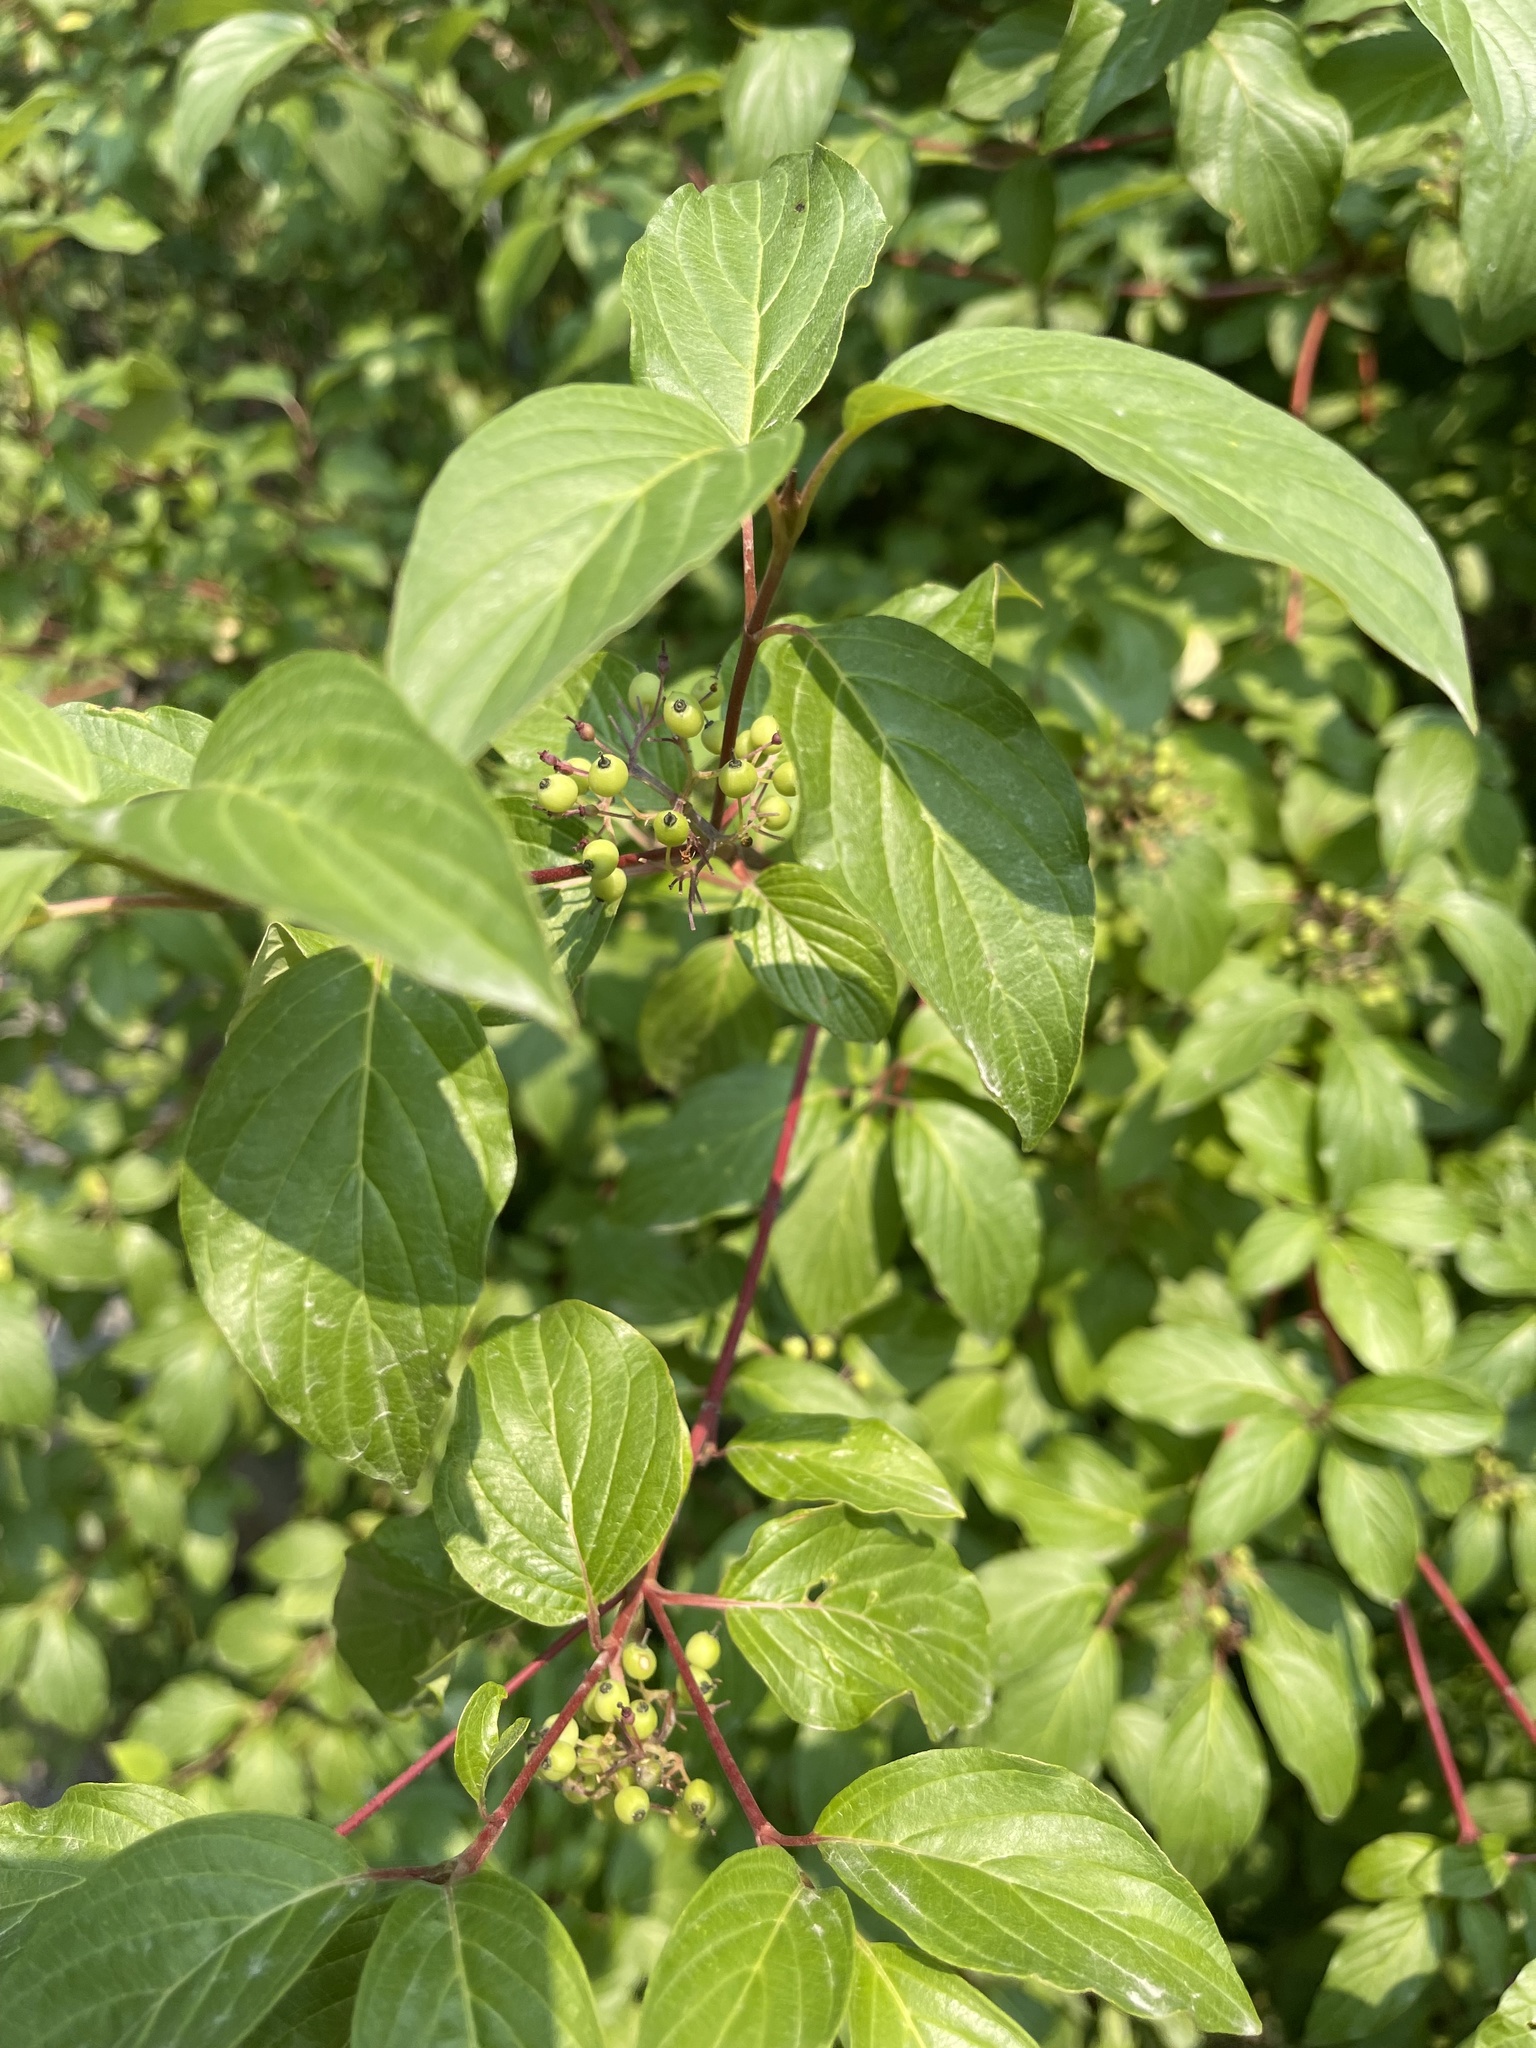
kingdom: Plantae
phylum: Tracheophyta
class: Magnoliopsida
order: Cornales
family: Cornaceae
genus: Cornus
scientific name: Cornus sericea
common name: Red-osier dogwood
